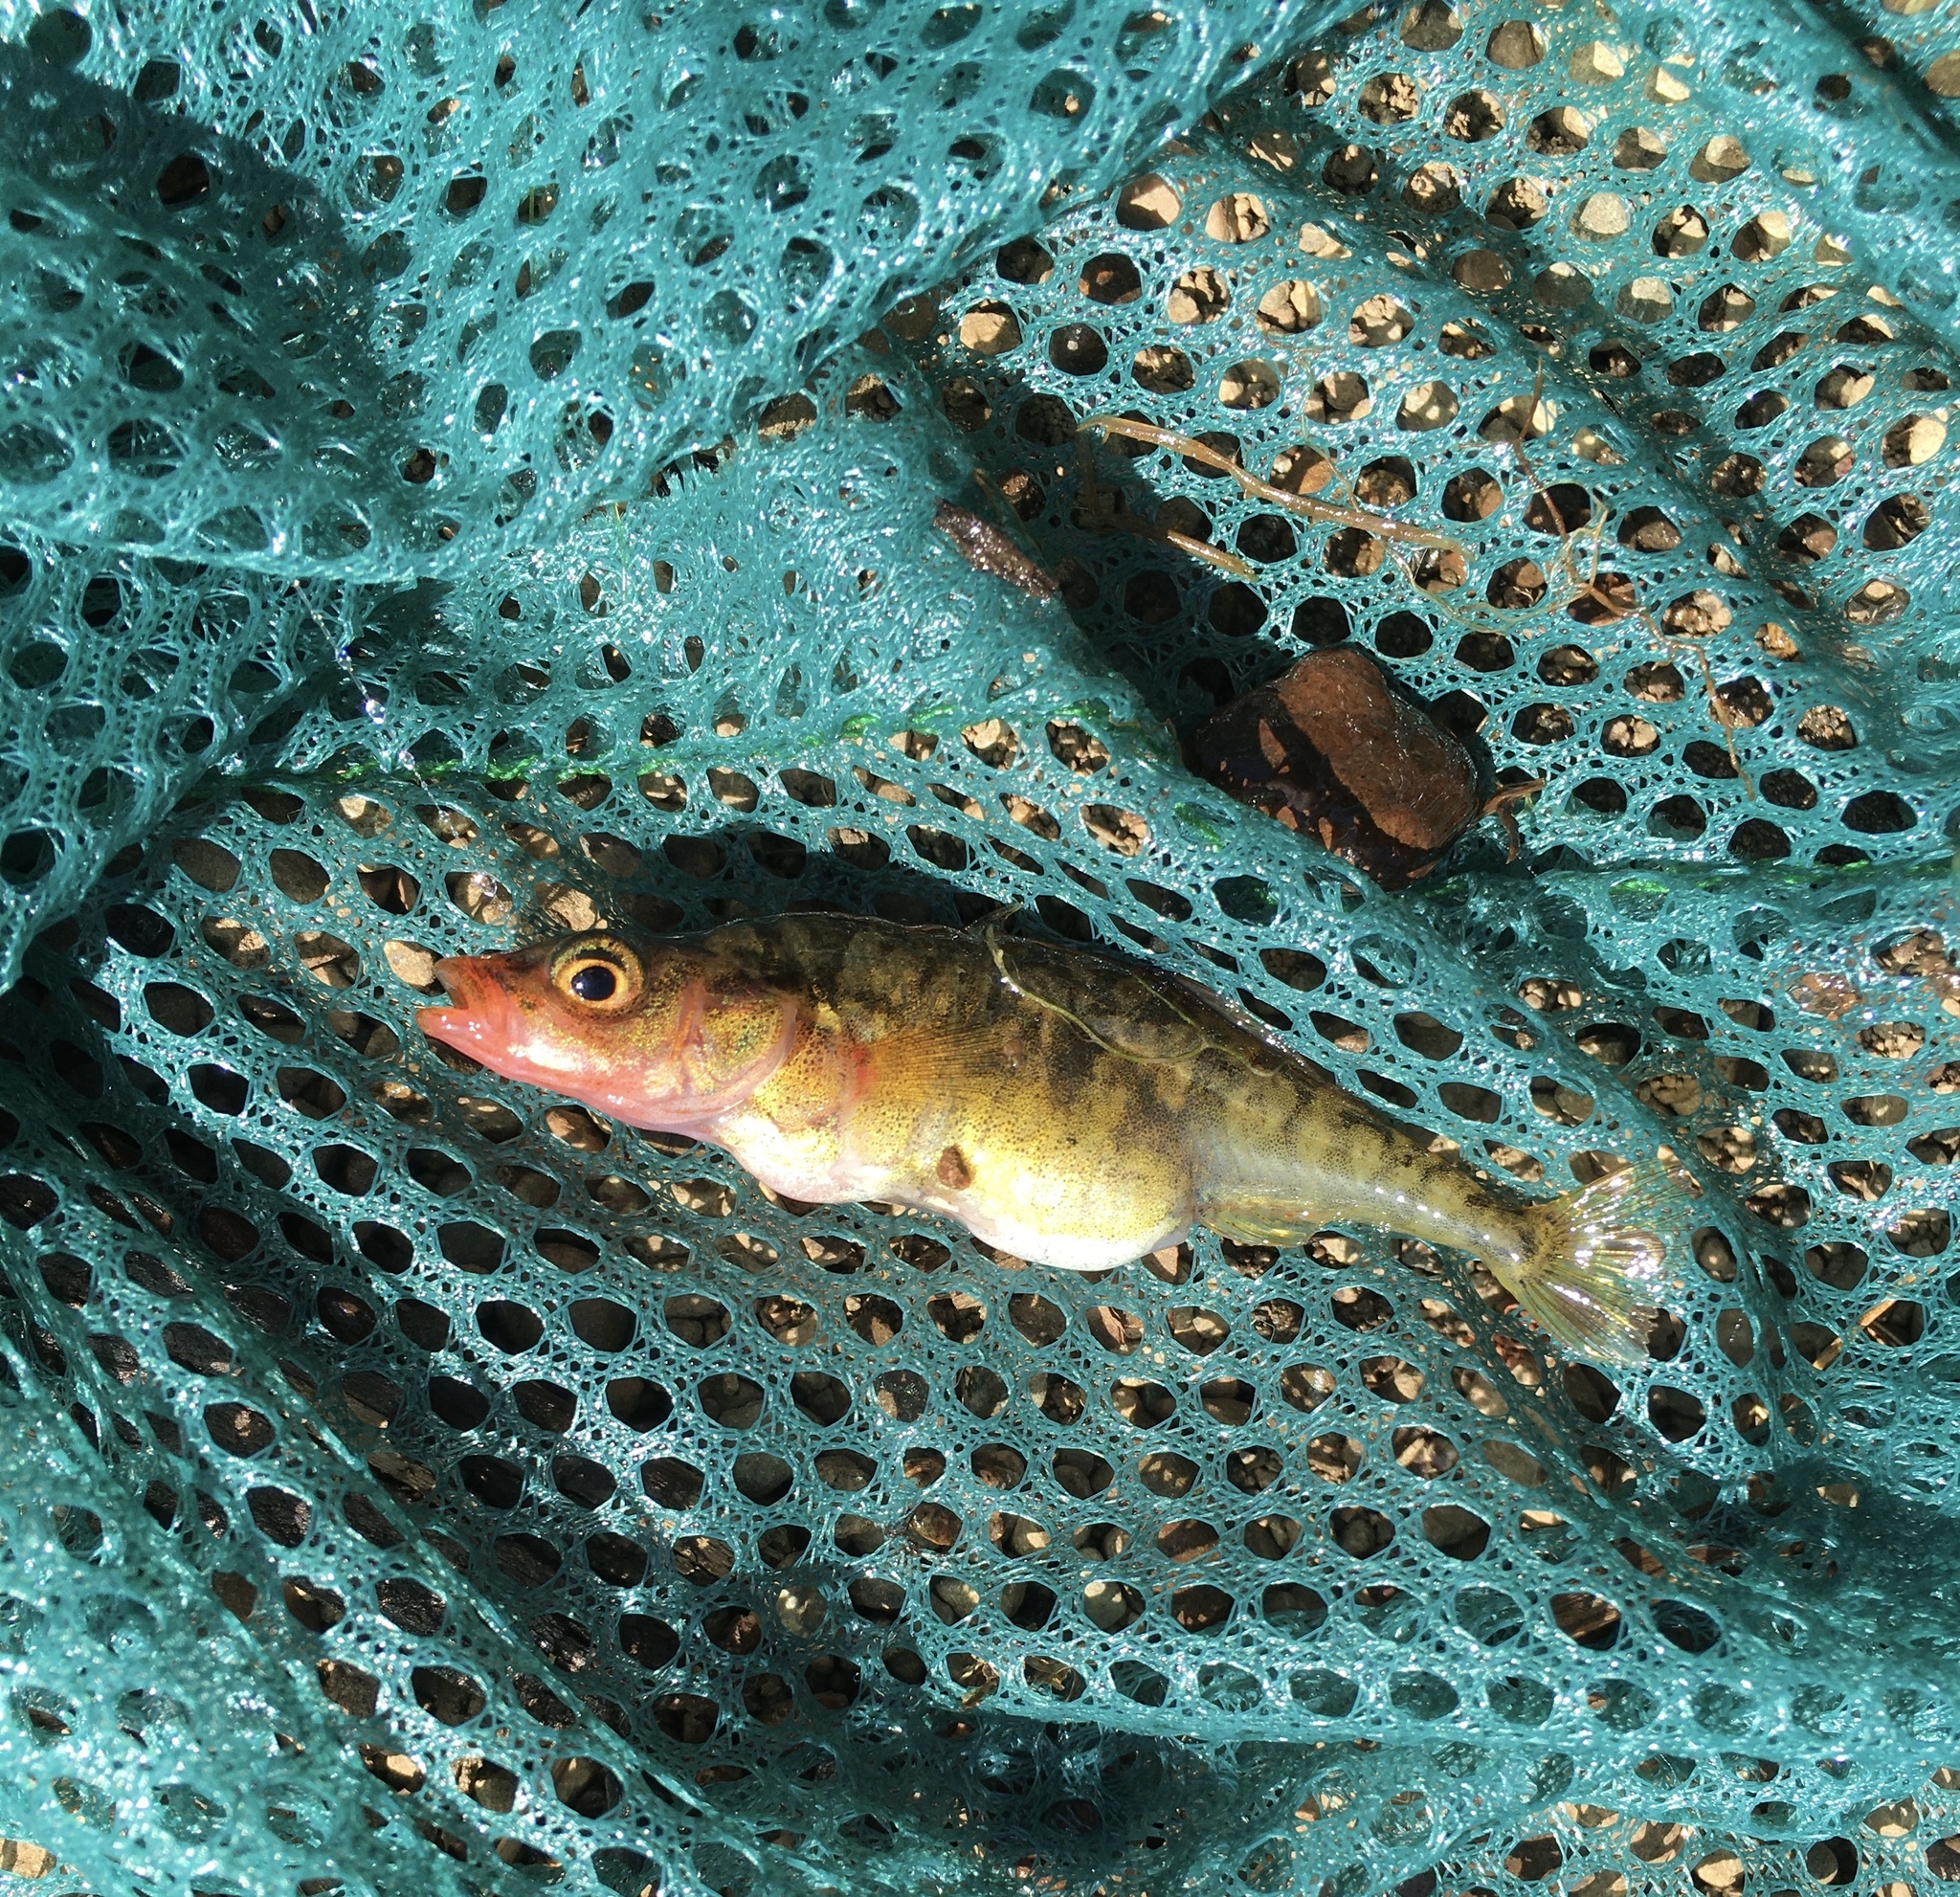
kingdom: Animalia
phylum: Chordata
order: Gasterosteiformes
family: Gasterosteidae
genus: Gasterosteus
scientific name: Gasterosteus aculeatus
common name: Three-spined stickleback
